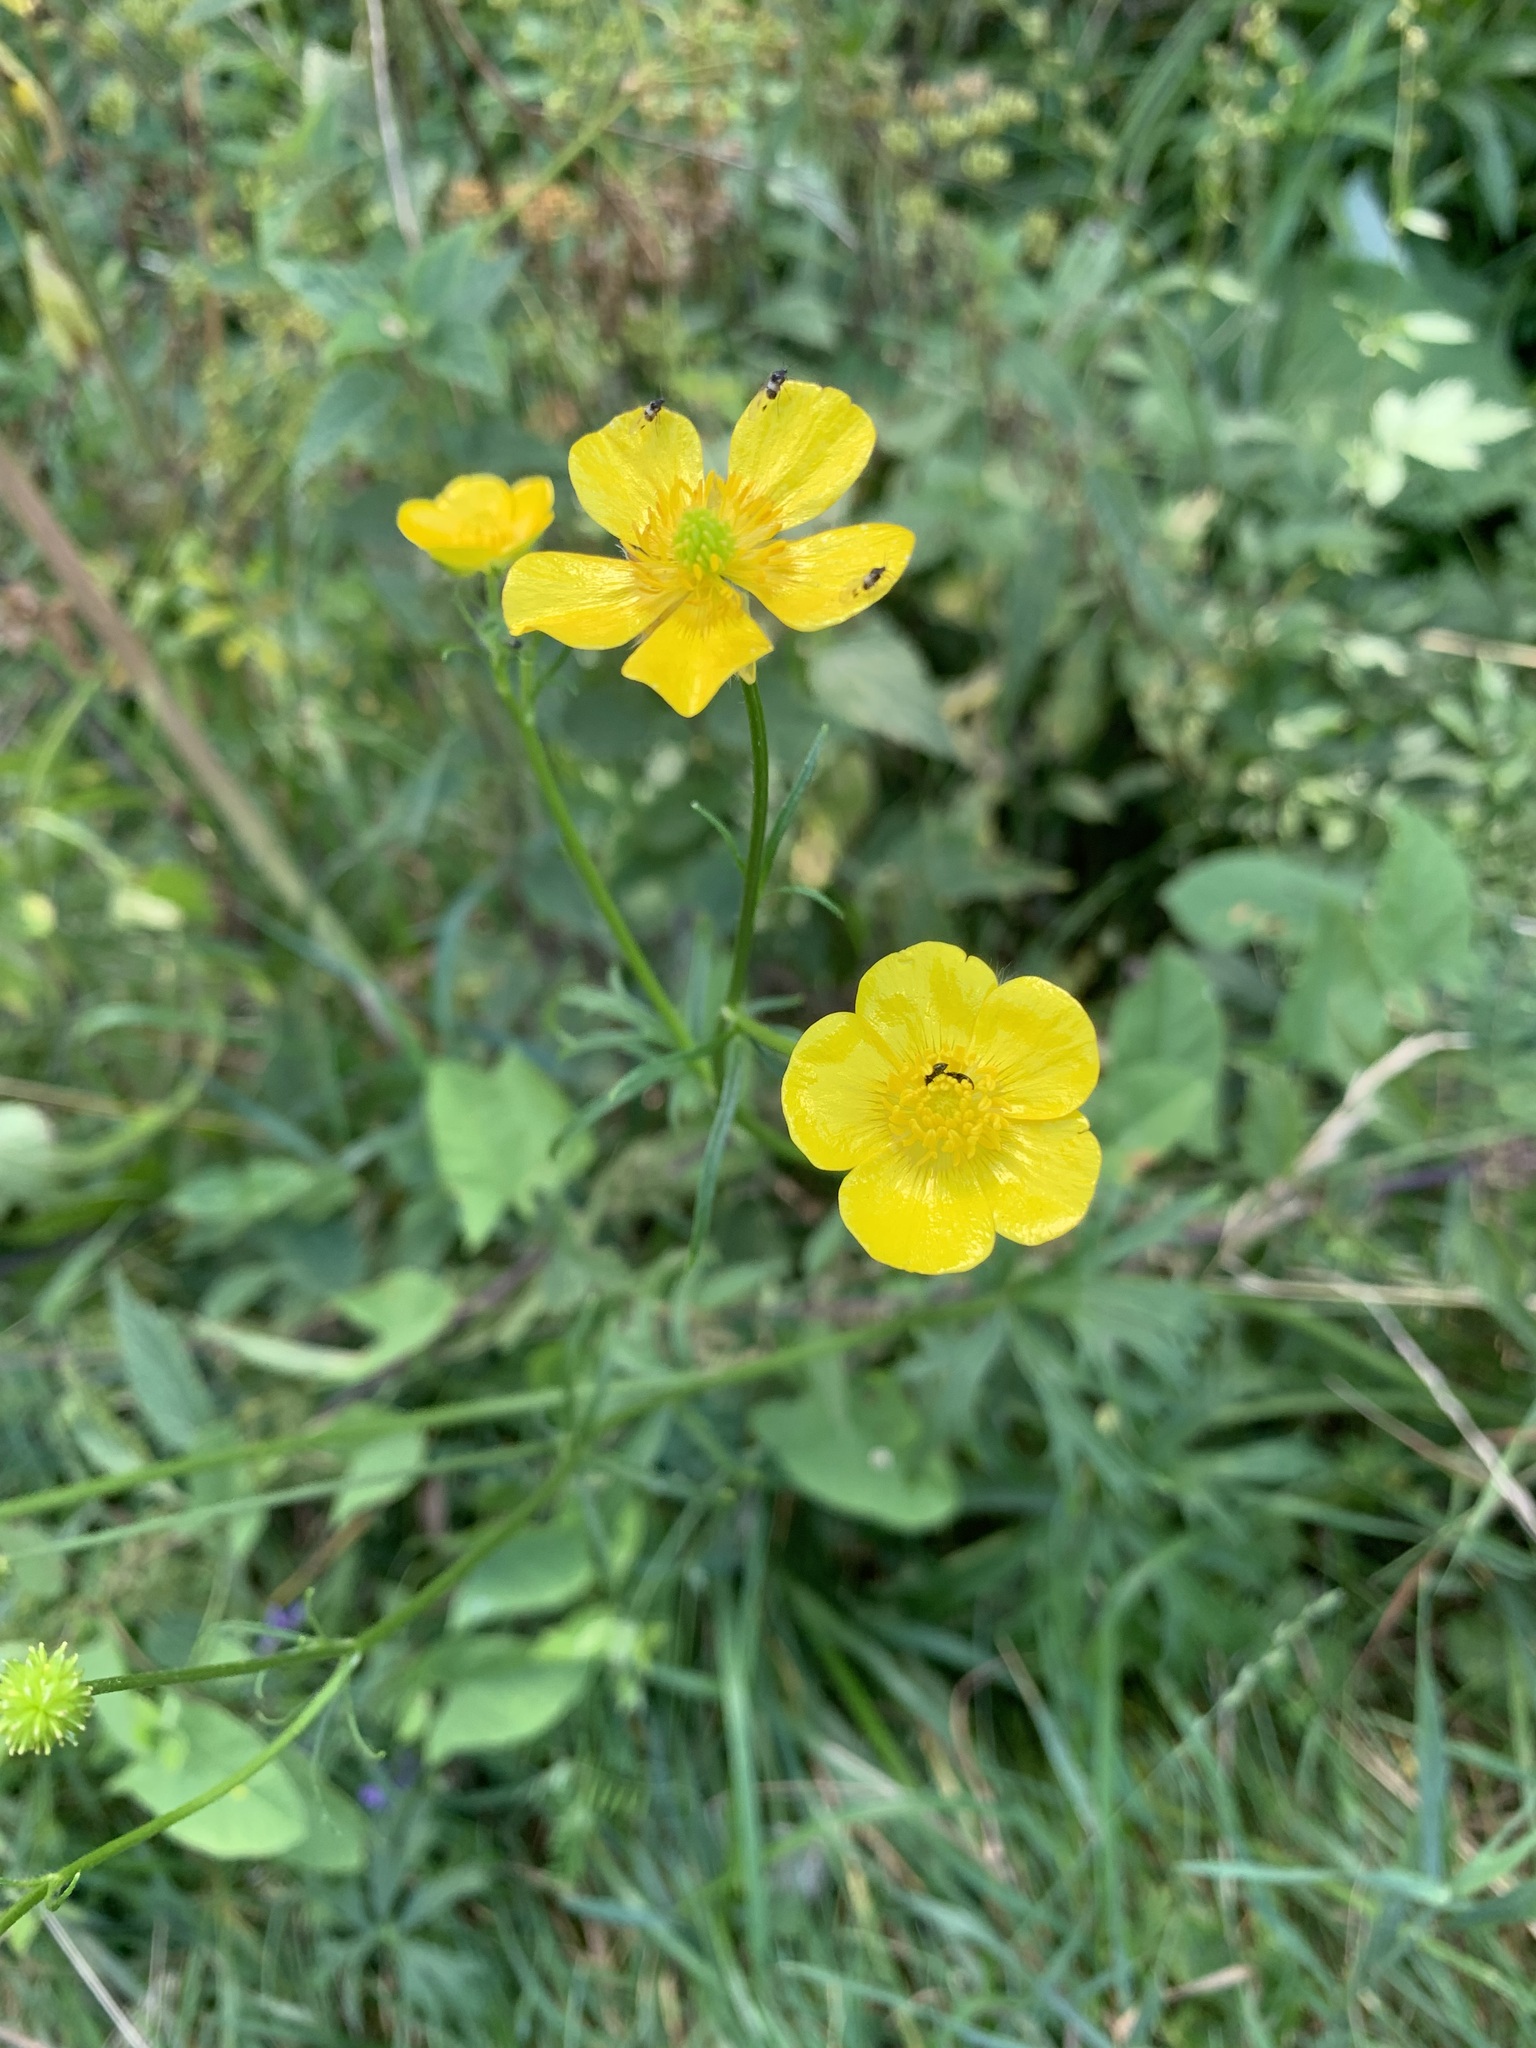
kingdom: Plantae
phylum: Tracheophyta
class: Magnoliopsida
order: Ranunculales
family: Ranunculaceae
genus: Ranunculus
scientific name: Ranunculus polyanthemos
